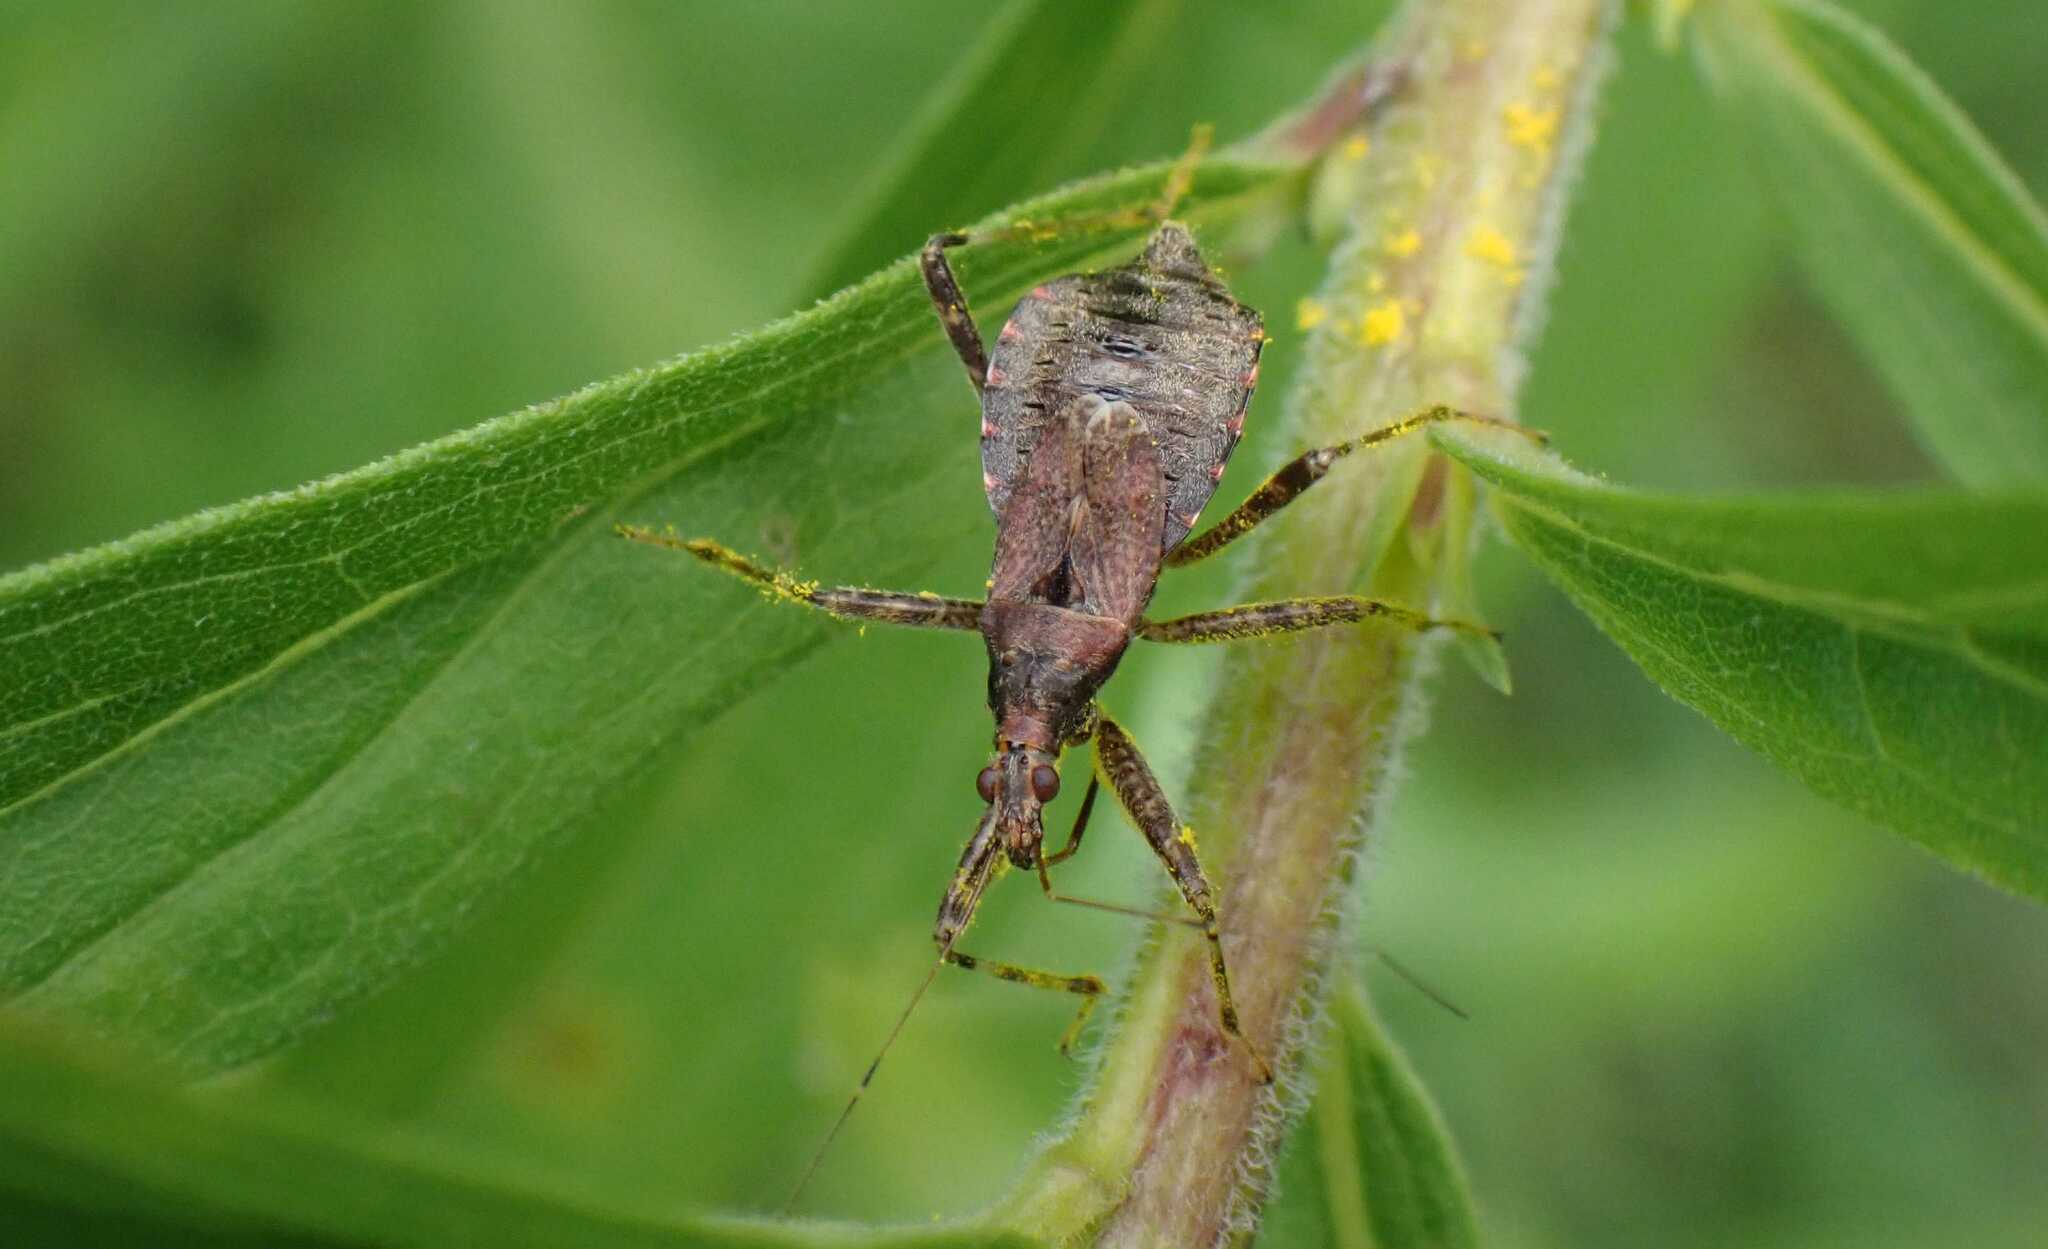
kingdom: Animalia
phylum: Arthropoda
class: Insecta
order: Hemiptera
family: Nabidae
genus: Himacerus
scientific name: Himacerus apterus
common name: Tree damsel bug
